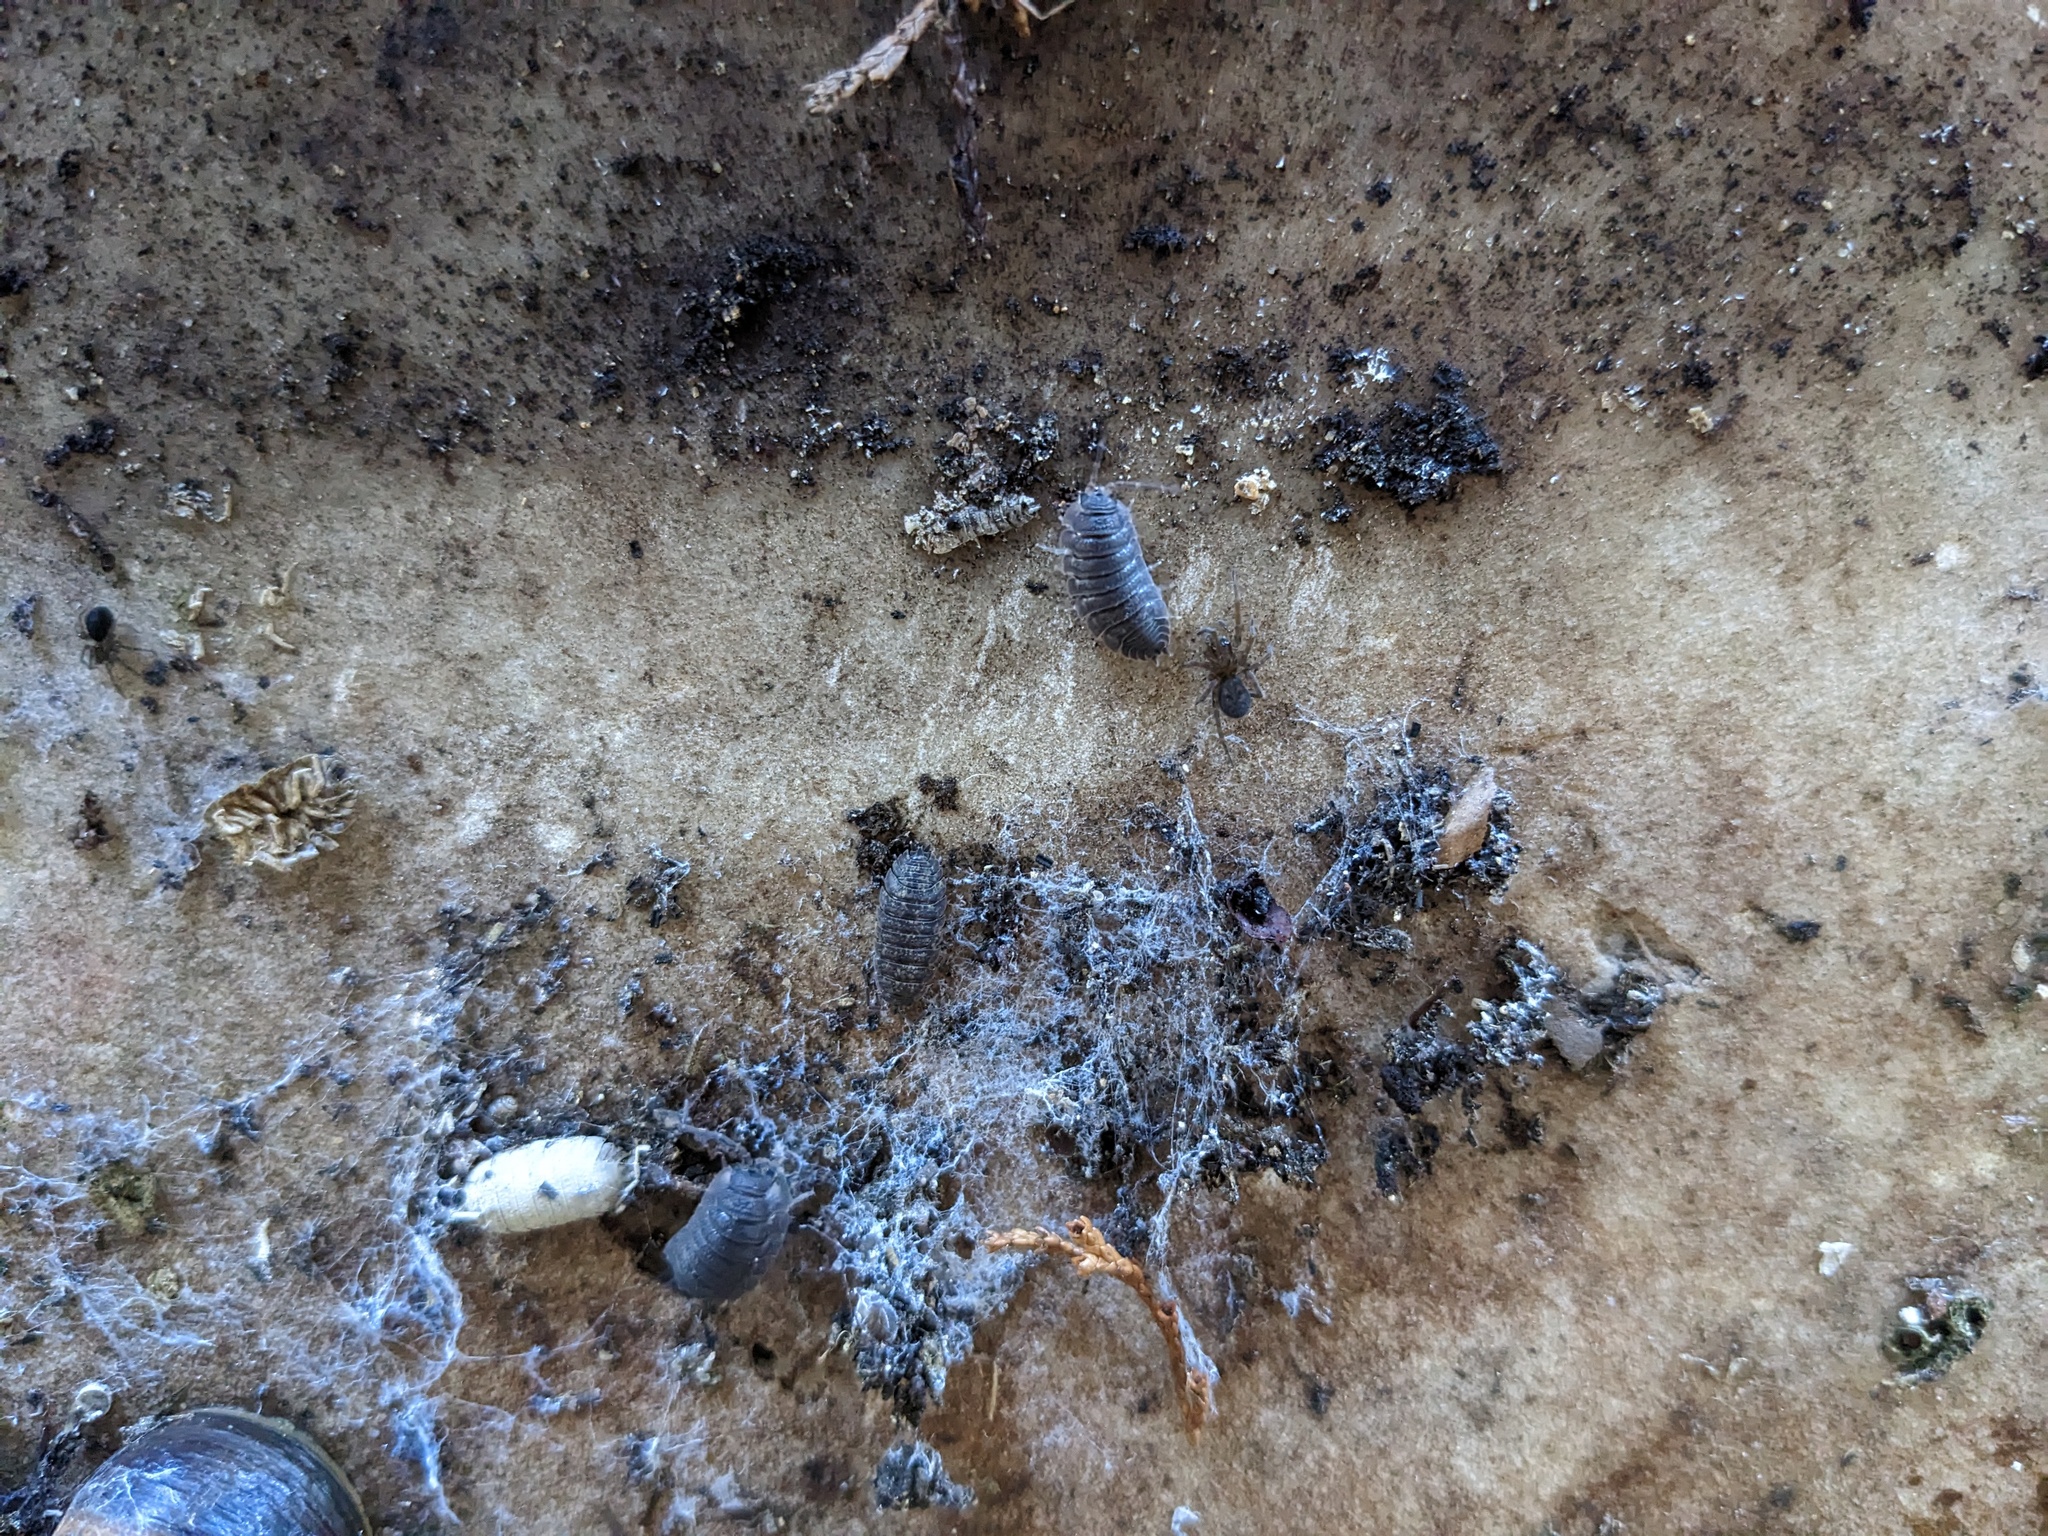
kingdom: Animalia
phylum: Arthropoda
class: Malacostraca
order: Isopoda
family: Porcellionidae
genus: Porcellio
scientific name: Porcellio scaber
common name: Common rough woodlouse
